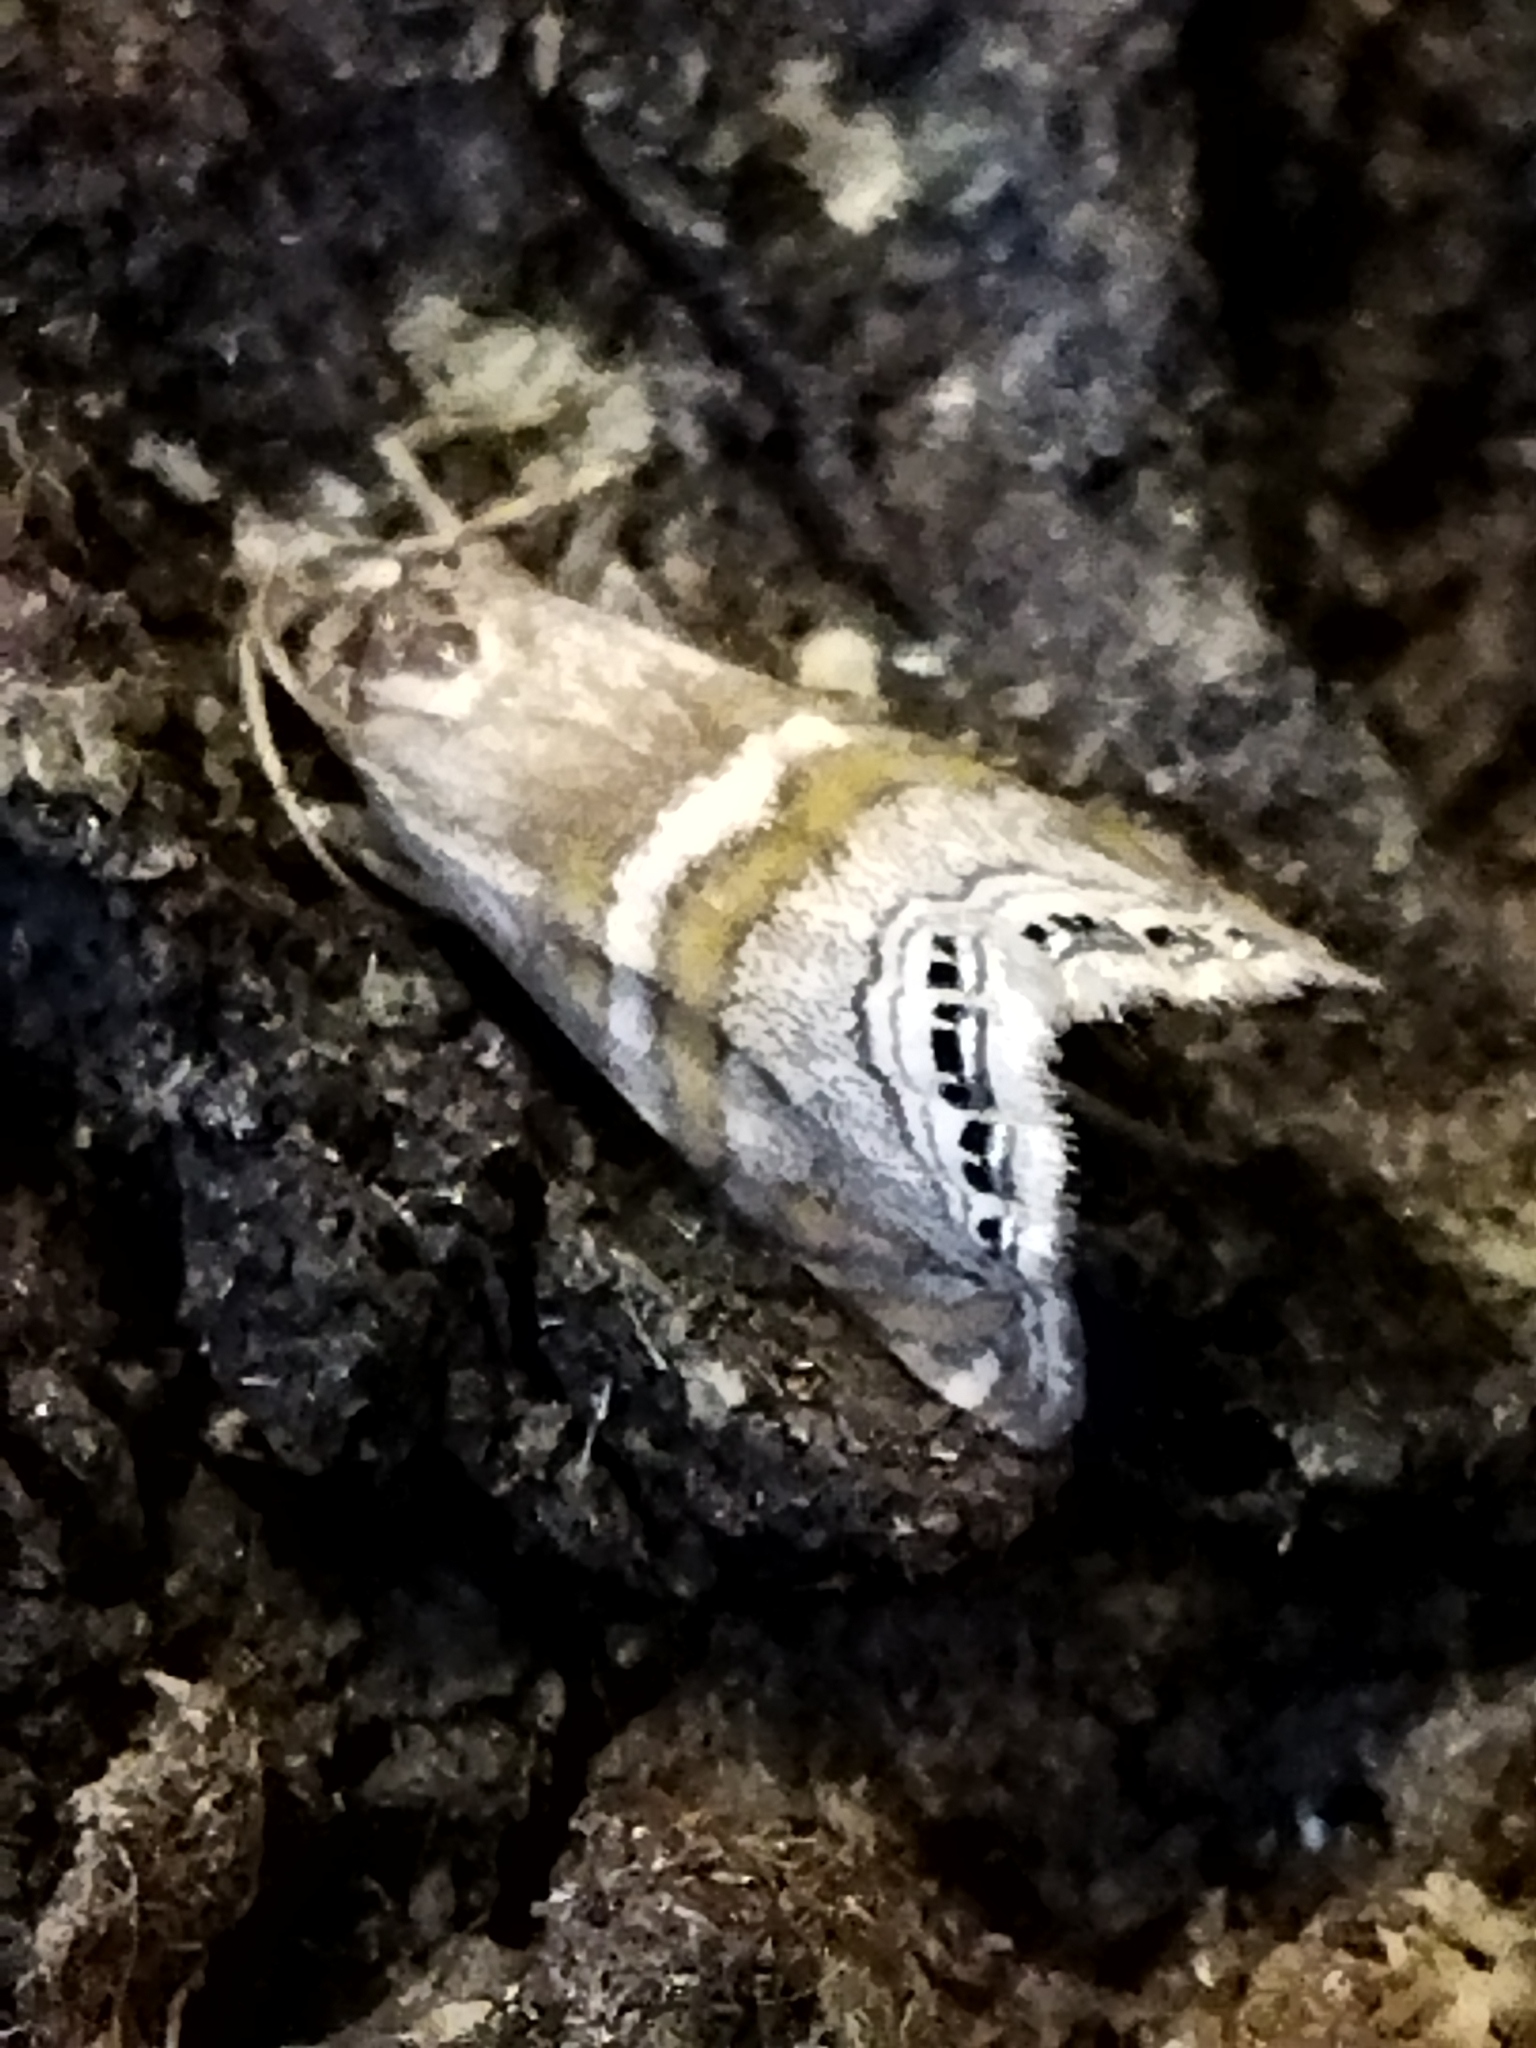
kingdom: Animalia
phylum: Arthropoda
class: Insecta
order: Lepidoptera
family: Crambidae
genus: Euchromius
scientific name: Euchromius bella
